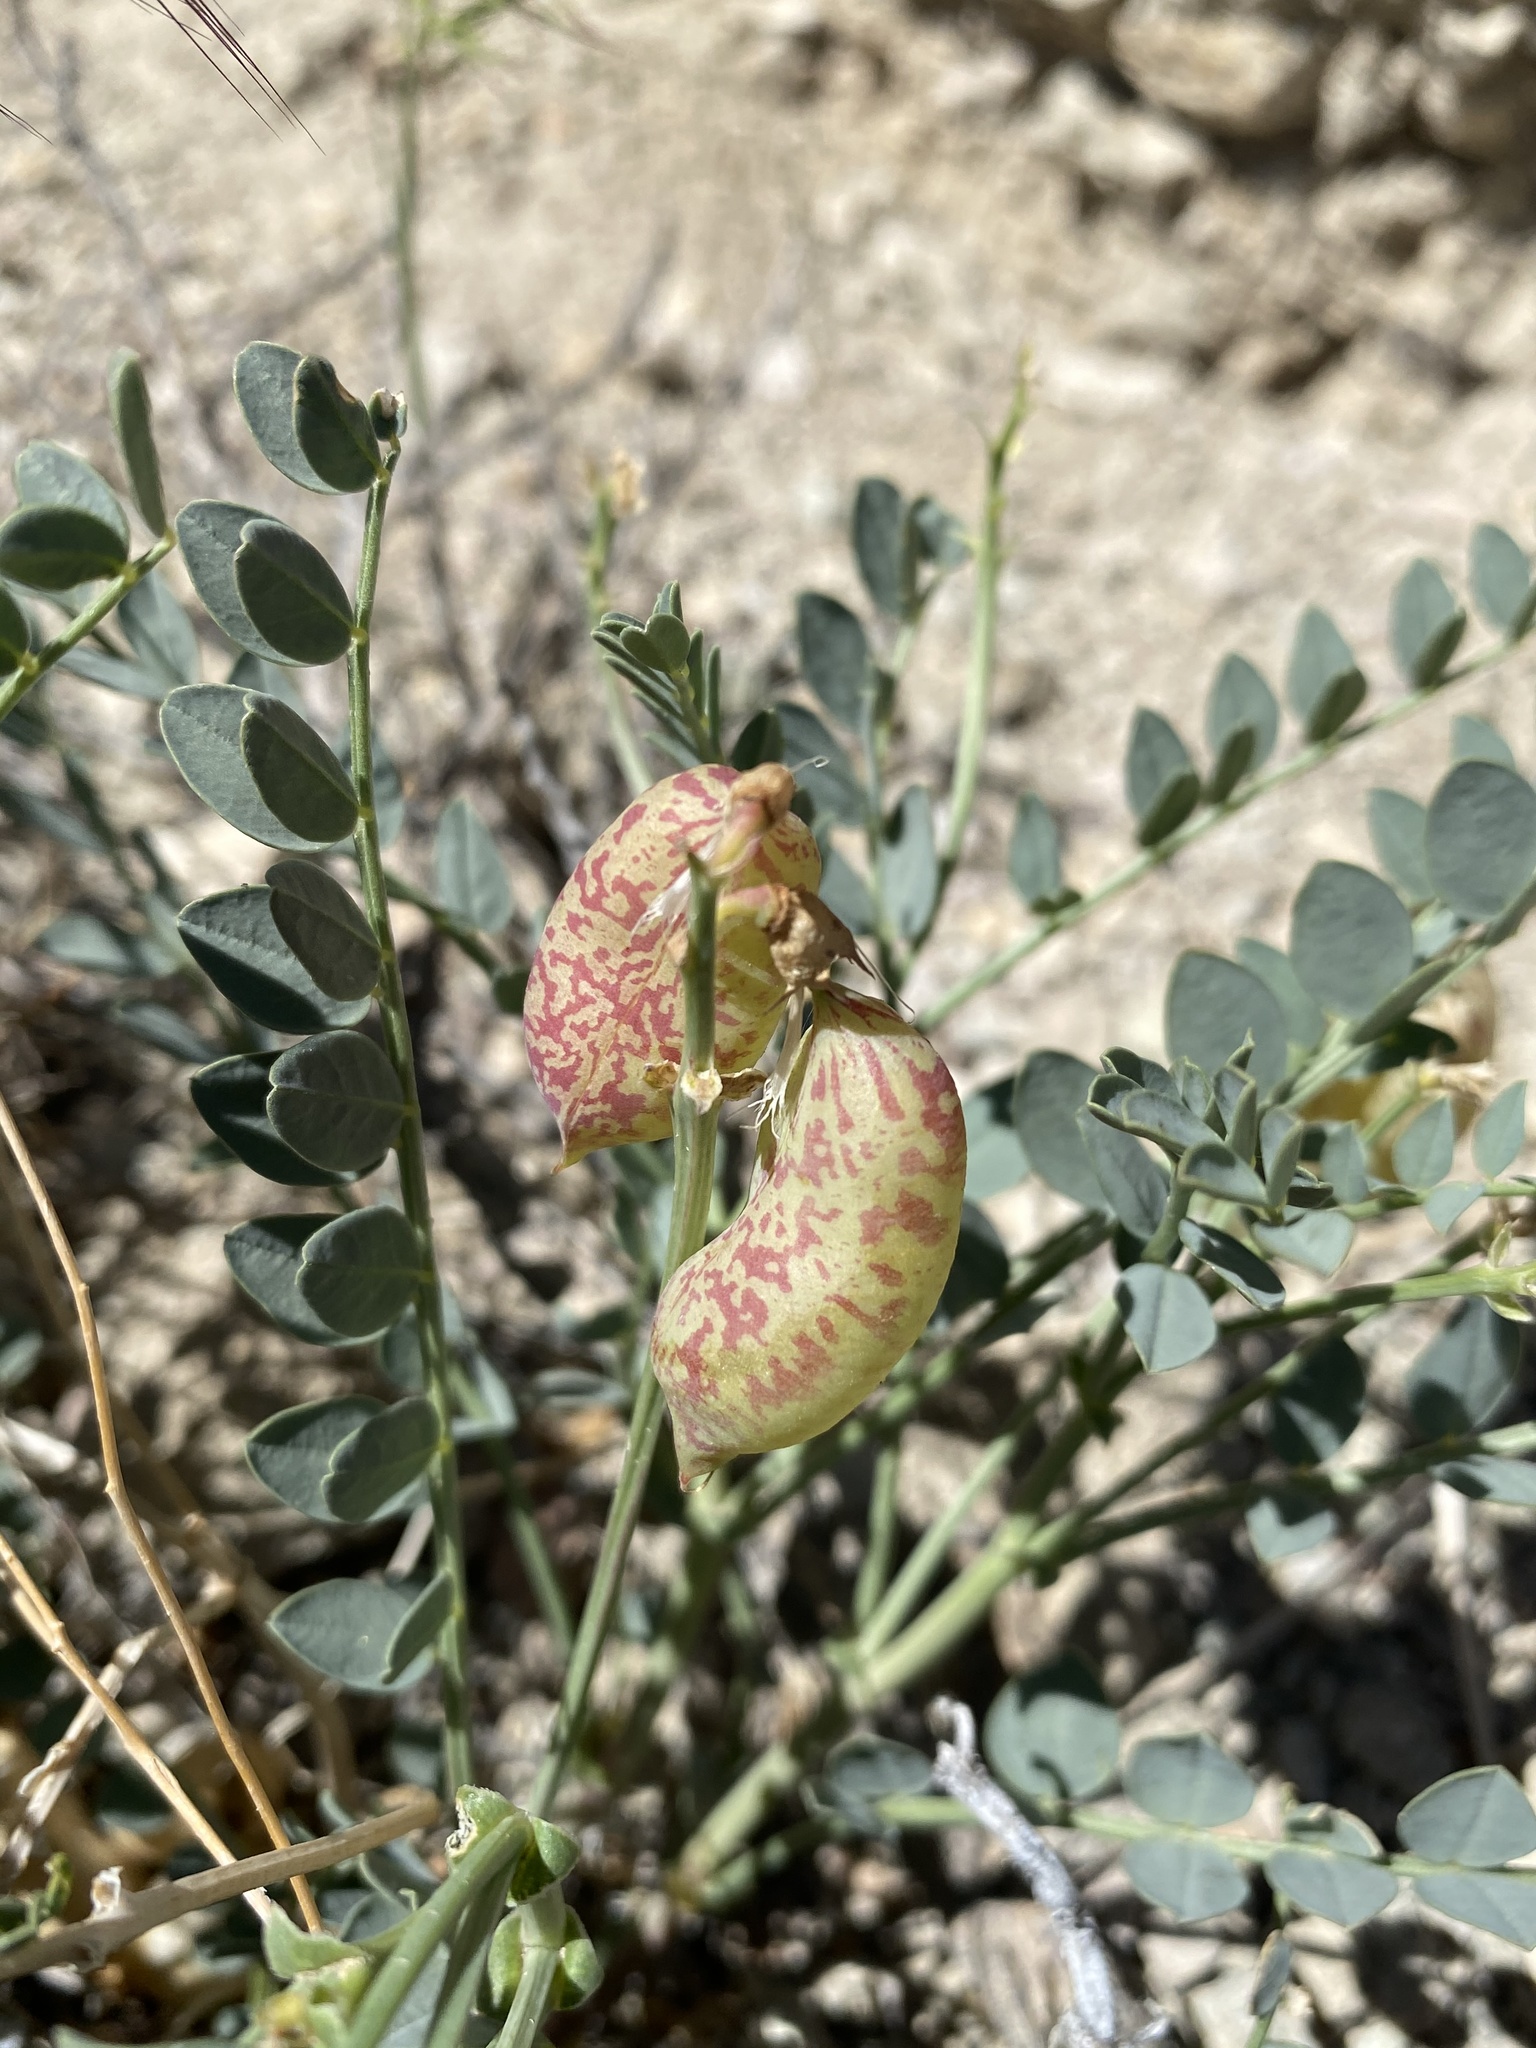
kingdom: Plantae
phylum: Tracheophyta
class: Magnoliopsida
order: Fabales
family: Fabaceae
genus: Astragalus
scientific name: Astragalus oophorus
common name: Egg milkvetch
